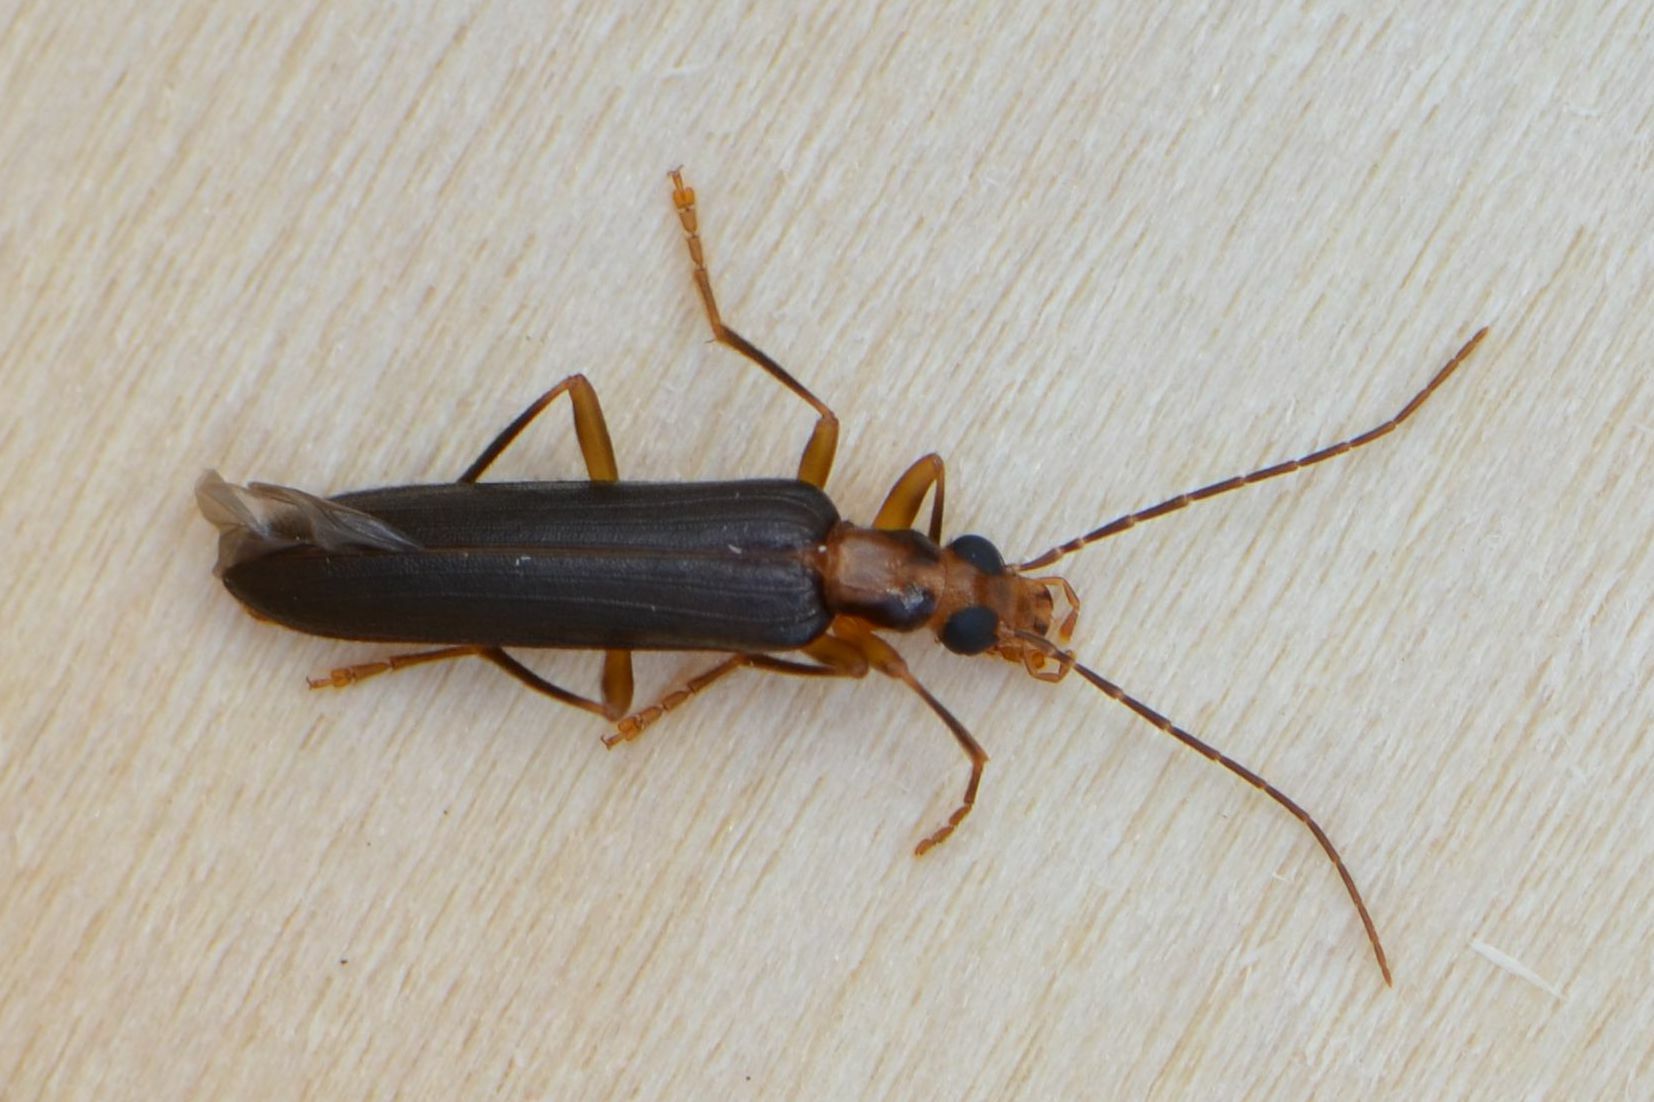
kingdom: Animalia
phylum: Arthropoda
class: Insecta
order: Coleoptera
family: Oedemeridae
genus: Nacerdes
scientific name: Nacerdes carniolica
